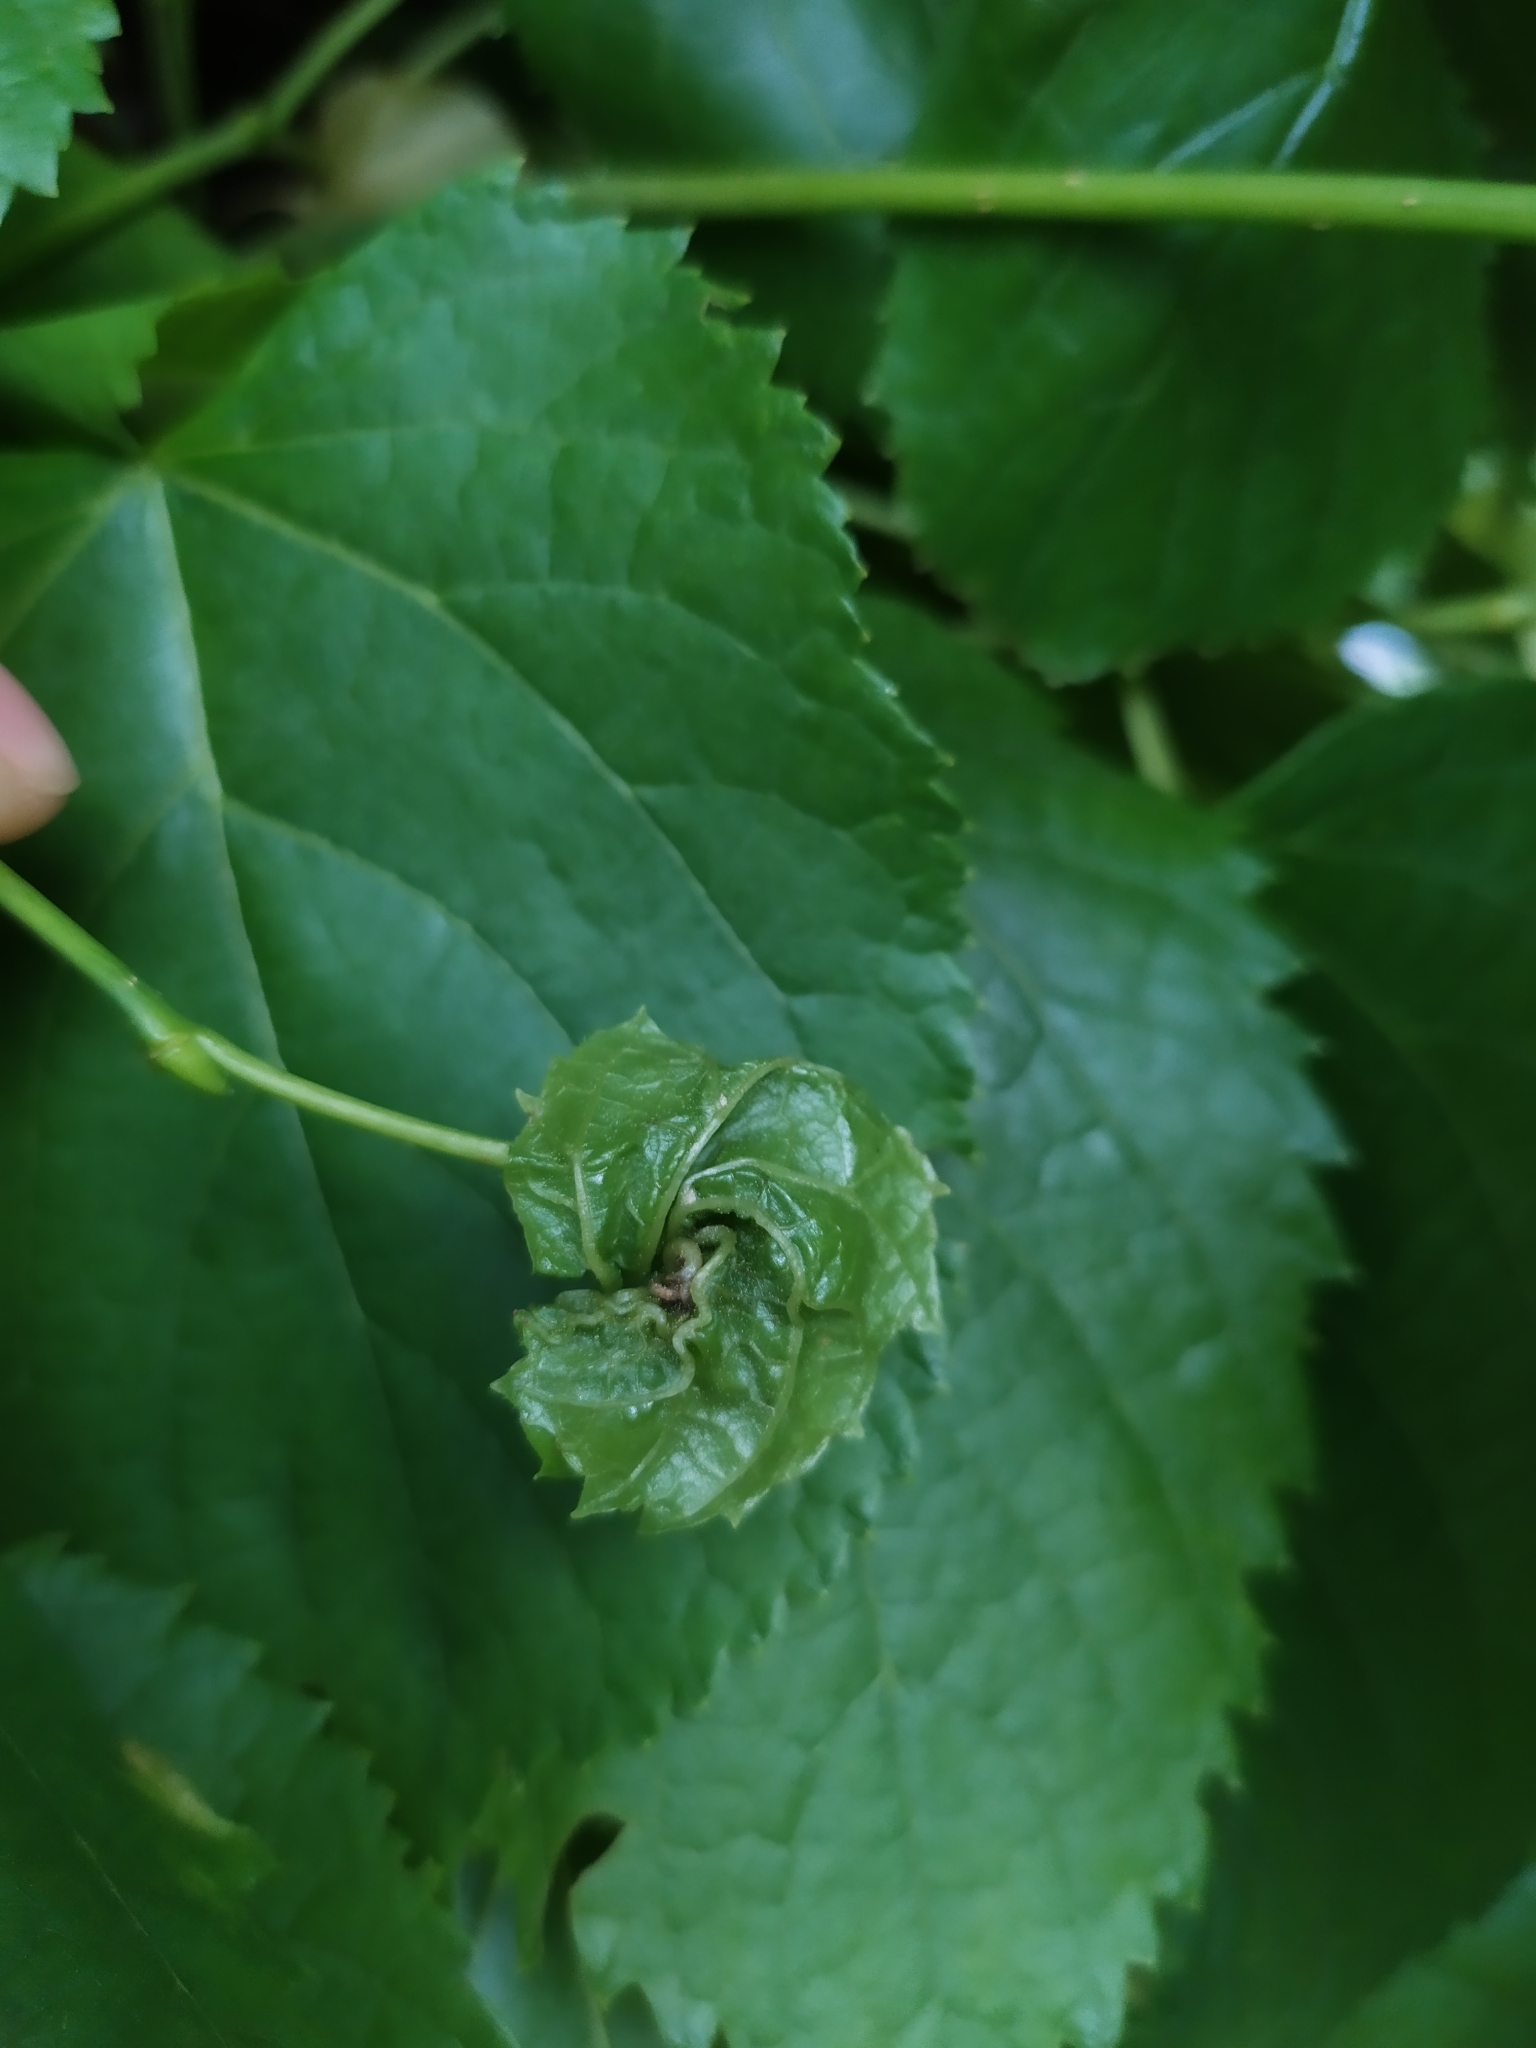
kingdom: Animalia
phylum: Arthropoda
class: Insecta
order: Diptera
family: Cecidomyiidae
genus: Dasineura
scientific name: Dasineura thomasiana
